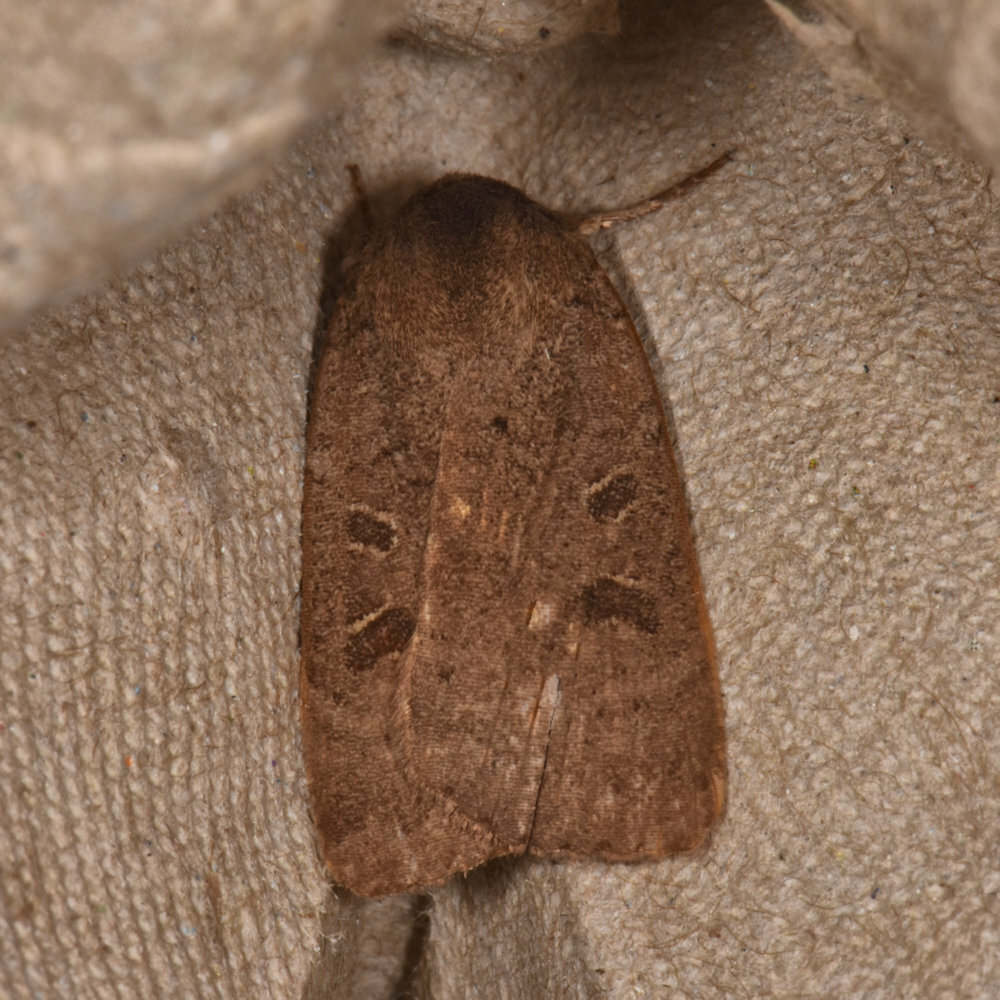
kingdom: Animalia
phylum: Arthropoda
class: Insecta
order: Lepidoptera
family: Noctuidae
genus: Noctua
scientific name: Noctua comes
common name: Lesser yellow underwing
